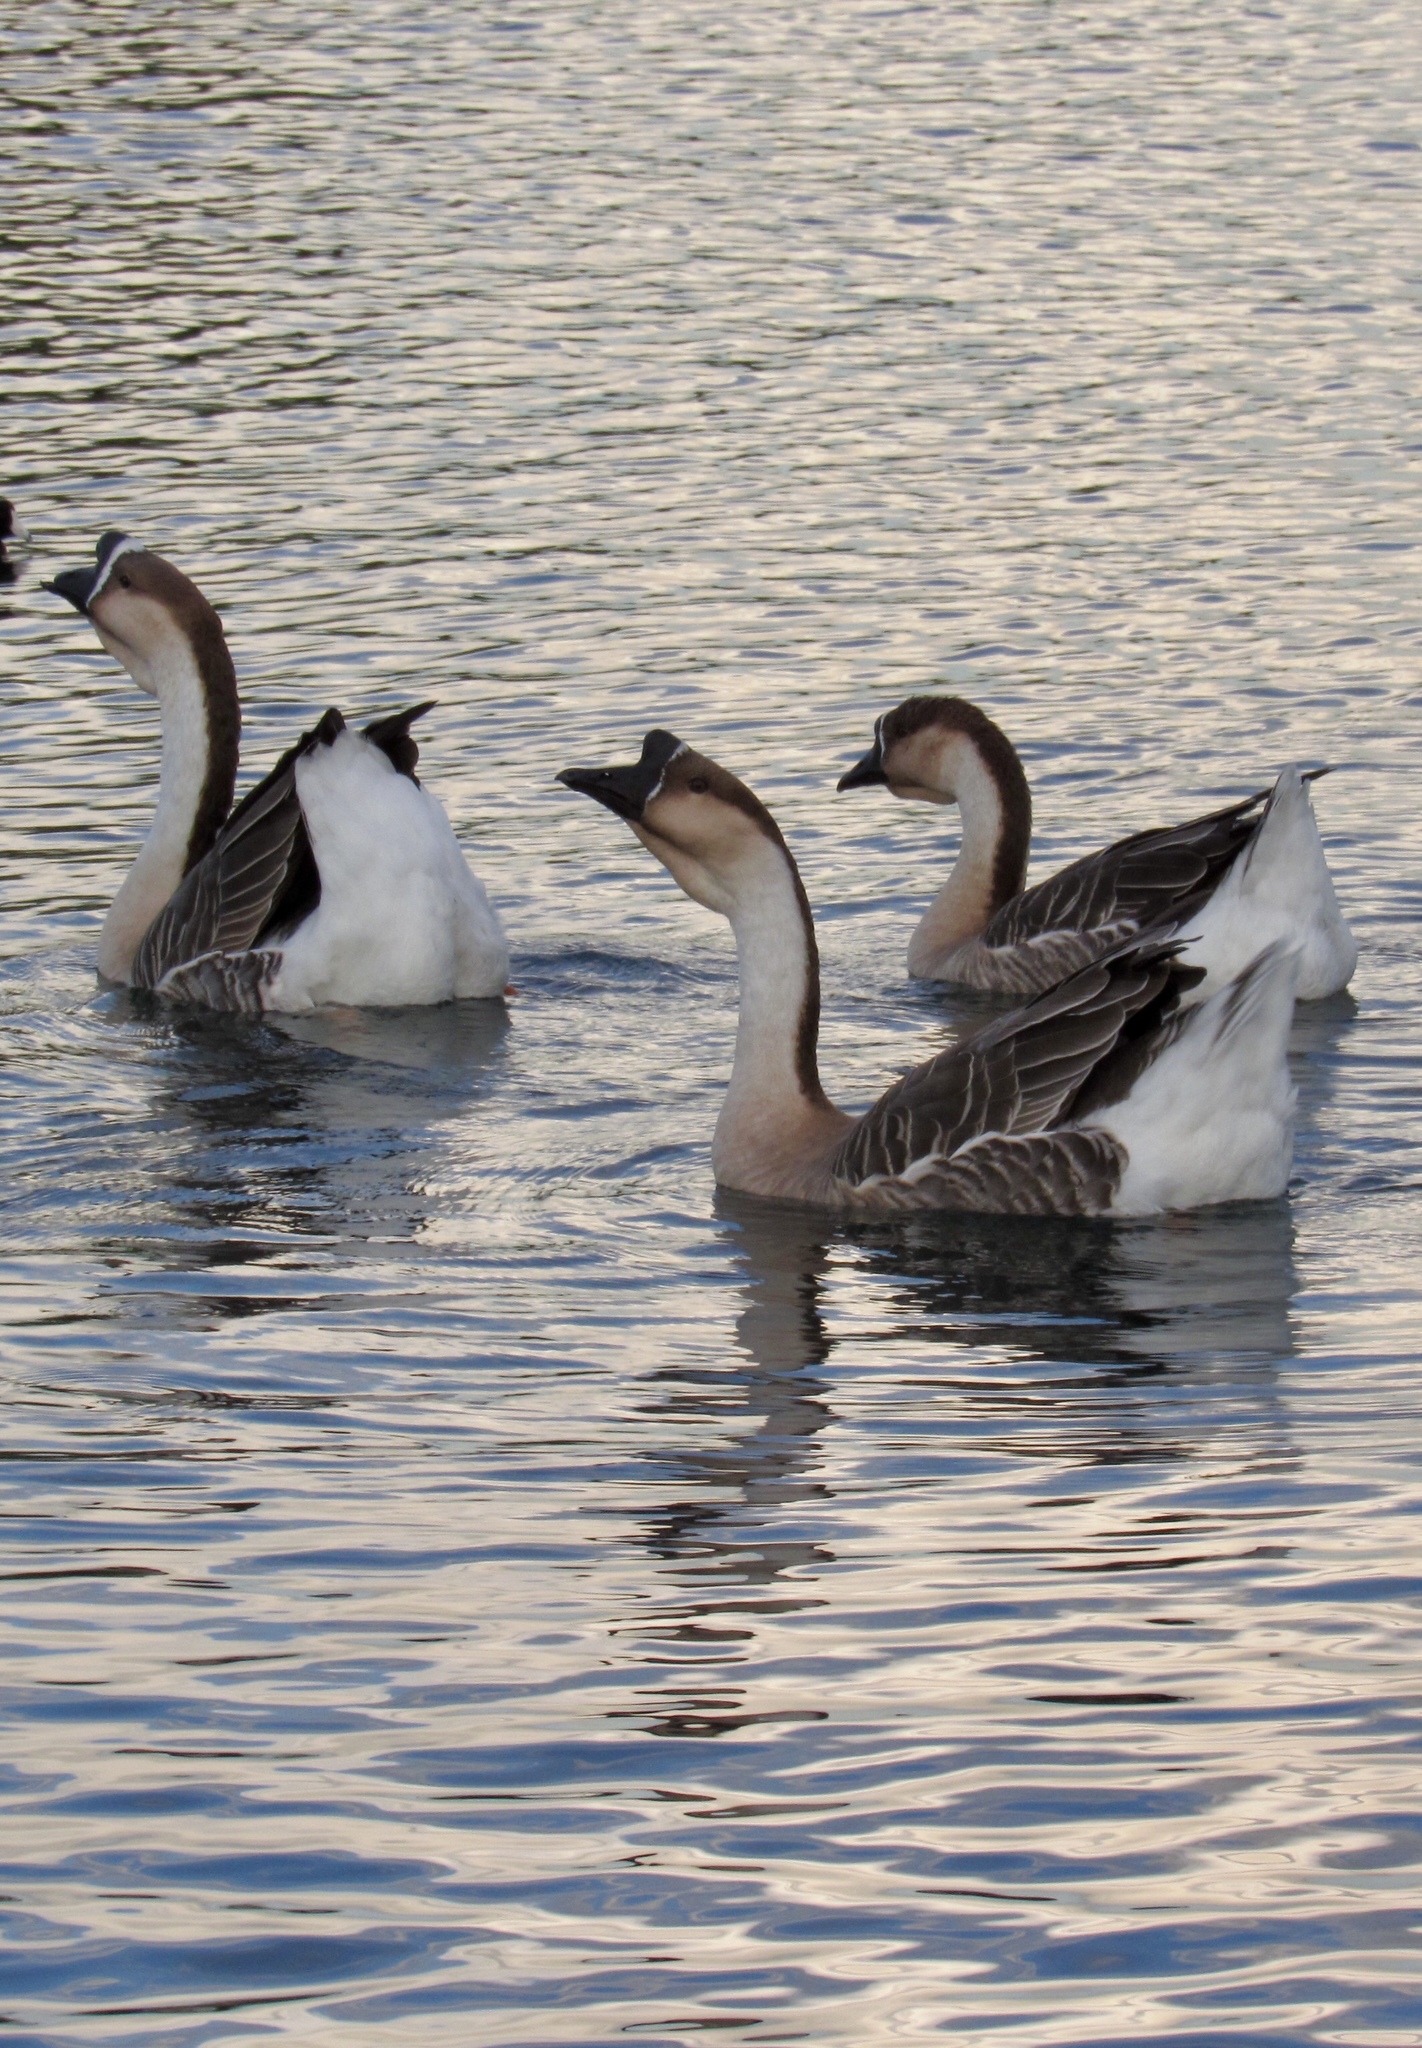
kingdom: Animalia
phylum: Chordata
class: Aves
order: Anseriformes
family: Anatidae
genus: Anser
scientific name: Anser cygnoides
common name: Swan goose
